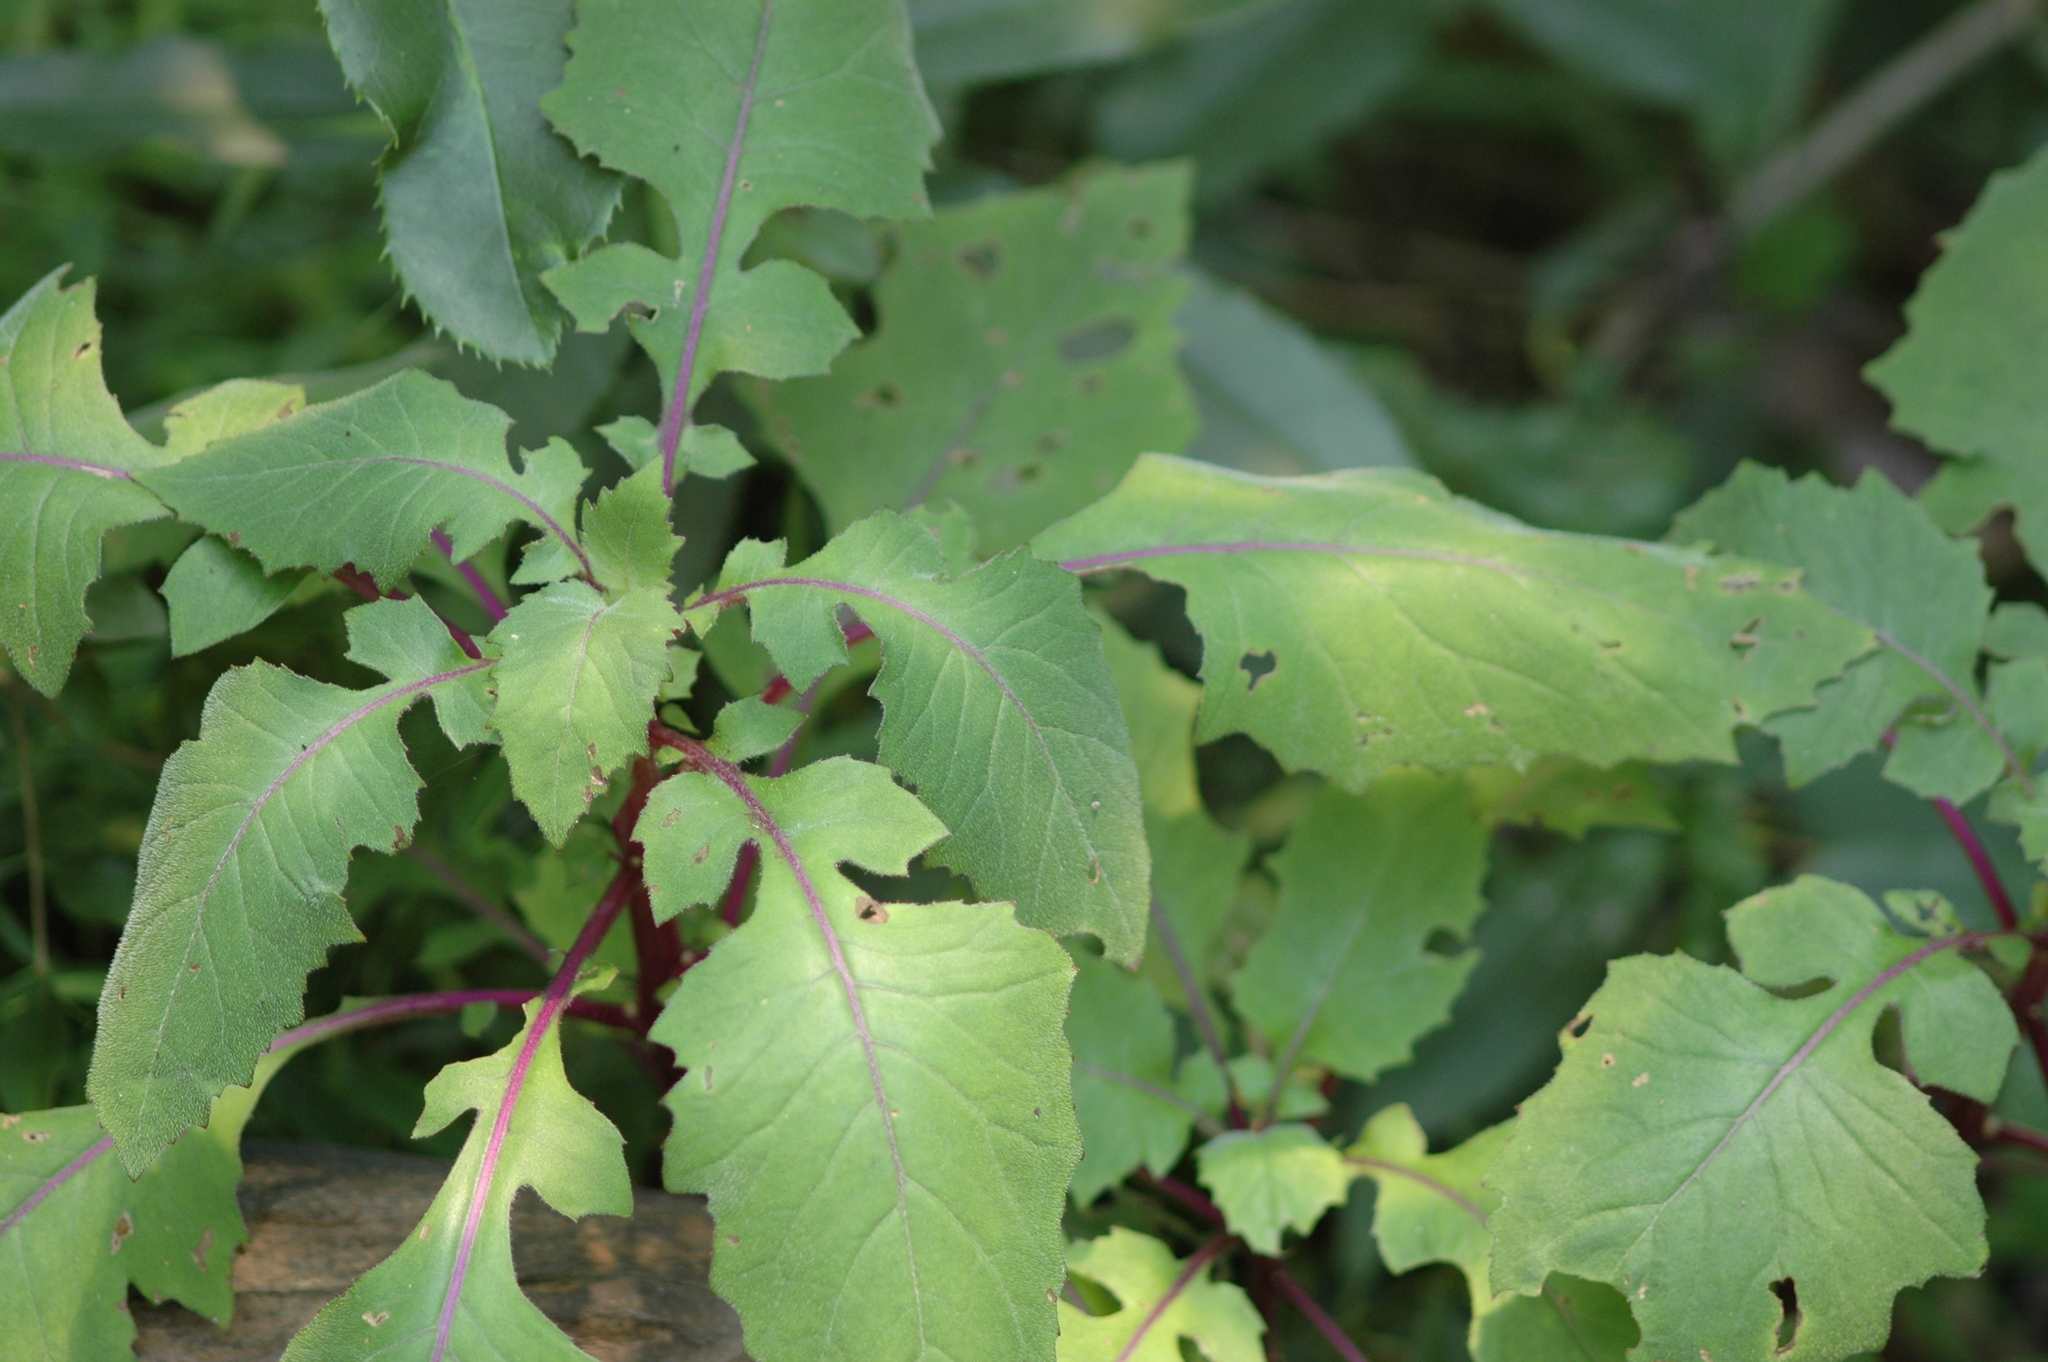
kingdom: Plantae
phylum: Tracheophyta
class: Magnoliopsida
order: Asterales
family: Asteraceae
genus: Gynura
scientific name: Gynura japonica
